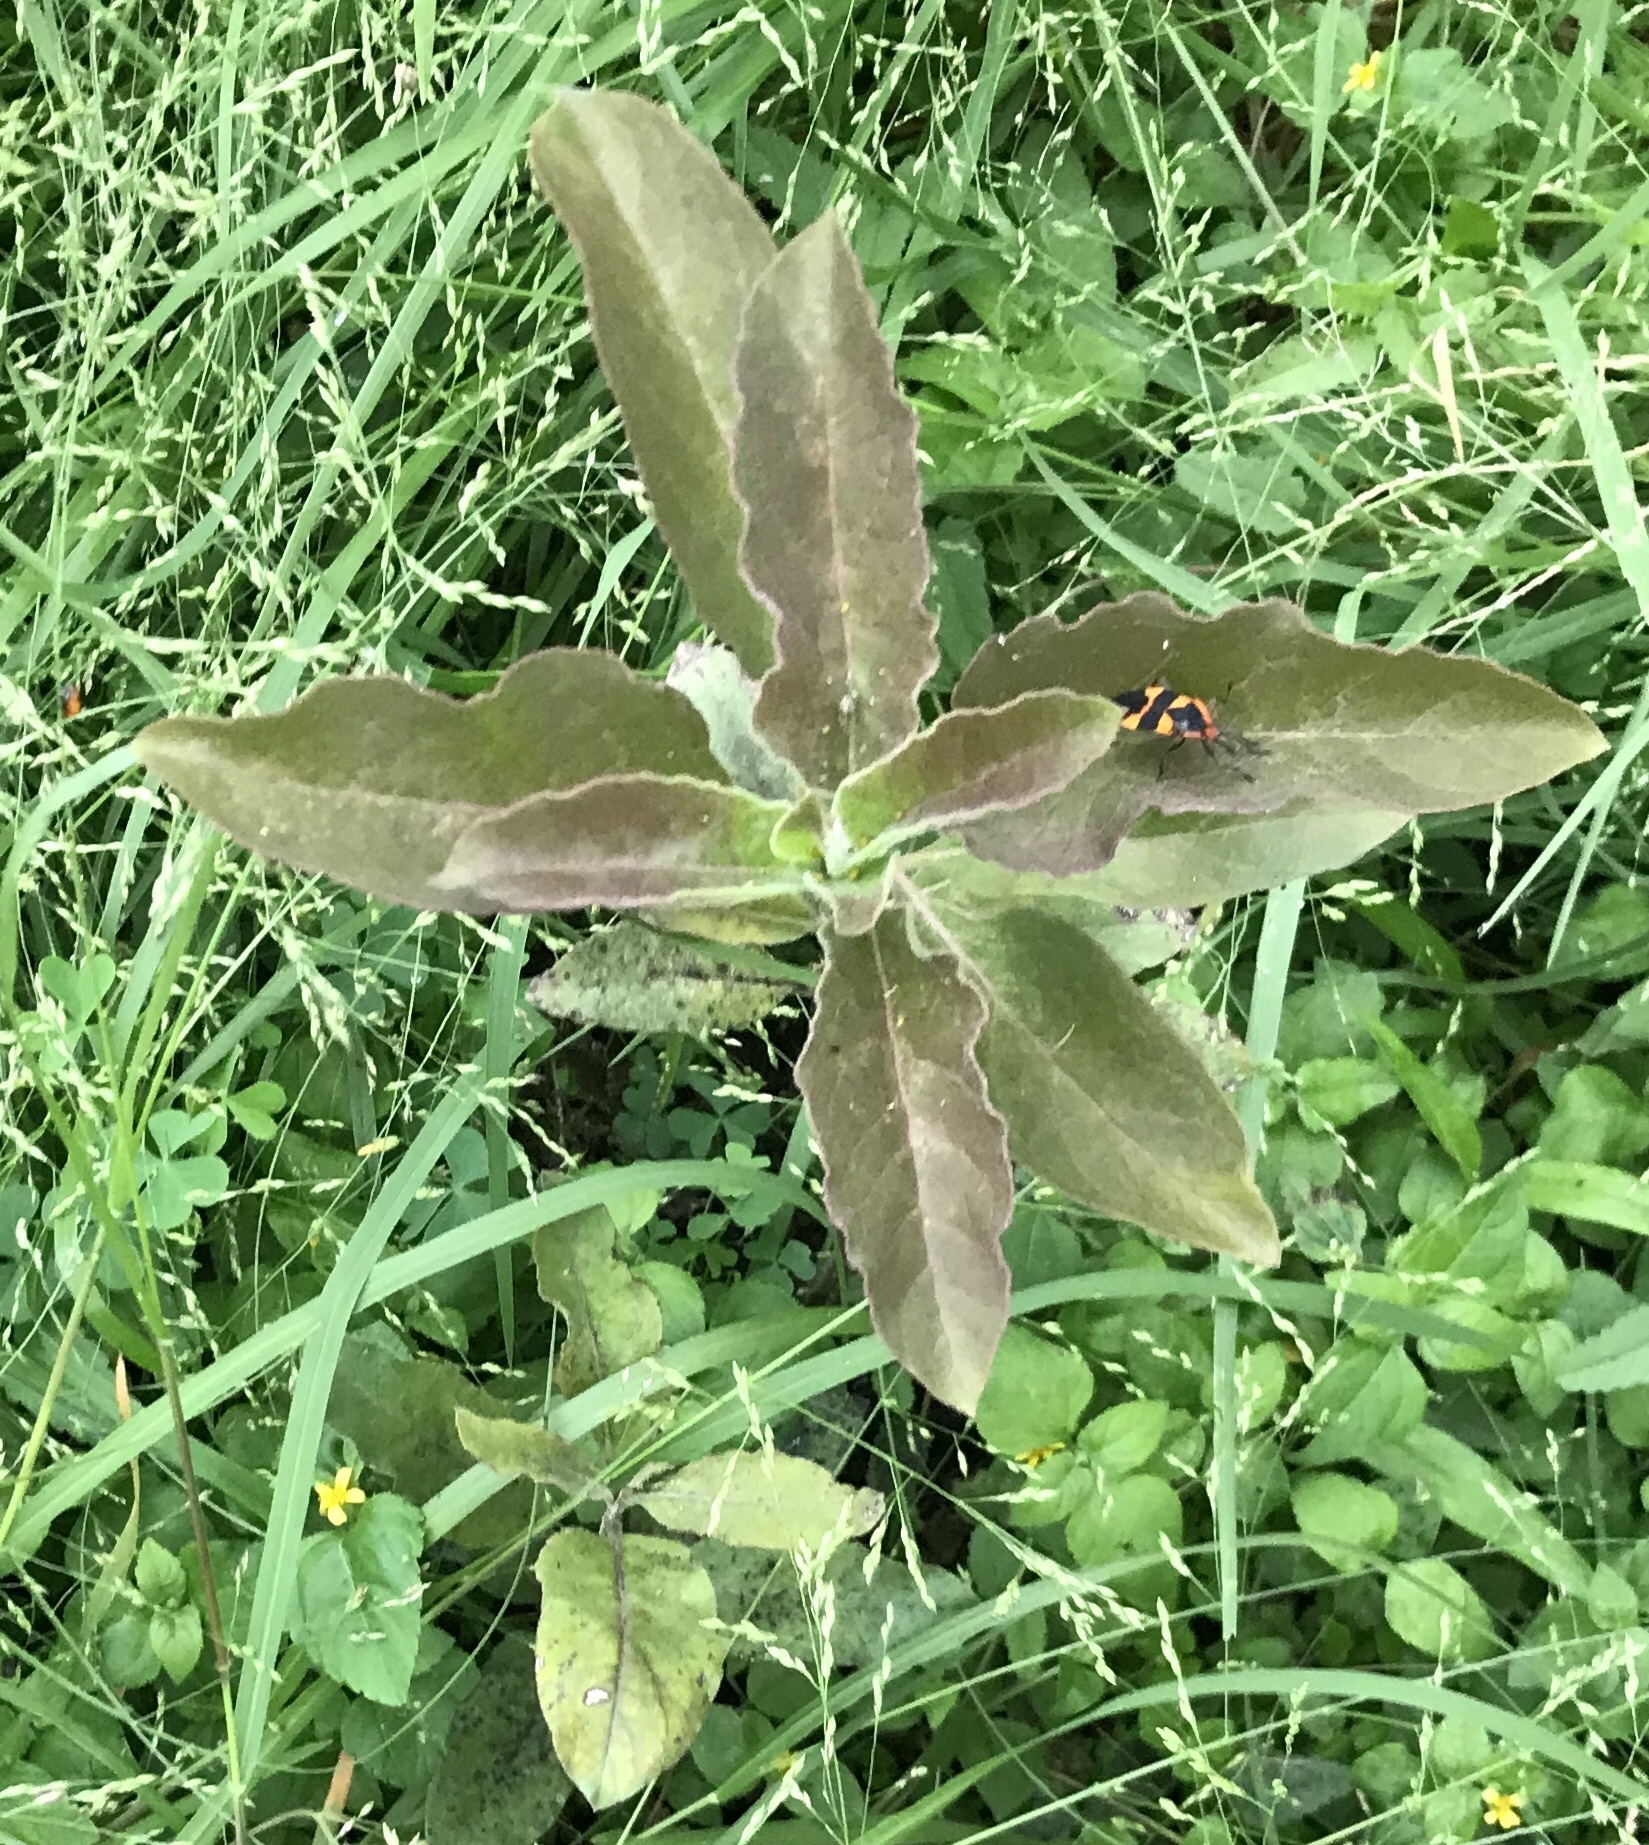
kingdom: Plantae
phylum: Tracheophyta
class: Magnoliopsida
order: Gentianales
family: Apocynaceae
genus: Asclepias
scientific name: Asclepias oenotheroides
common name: Zizotes milkweed
